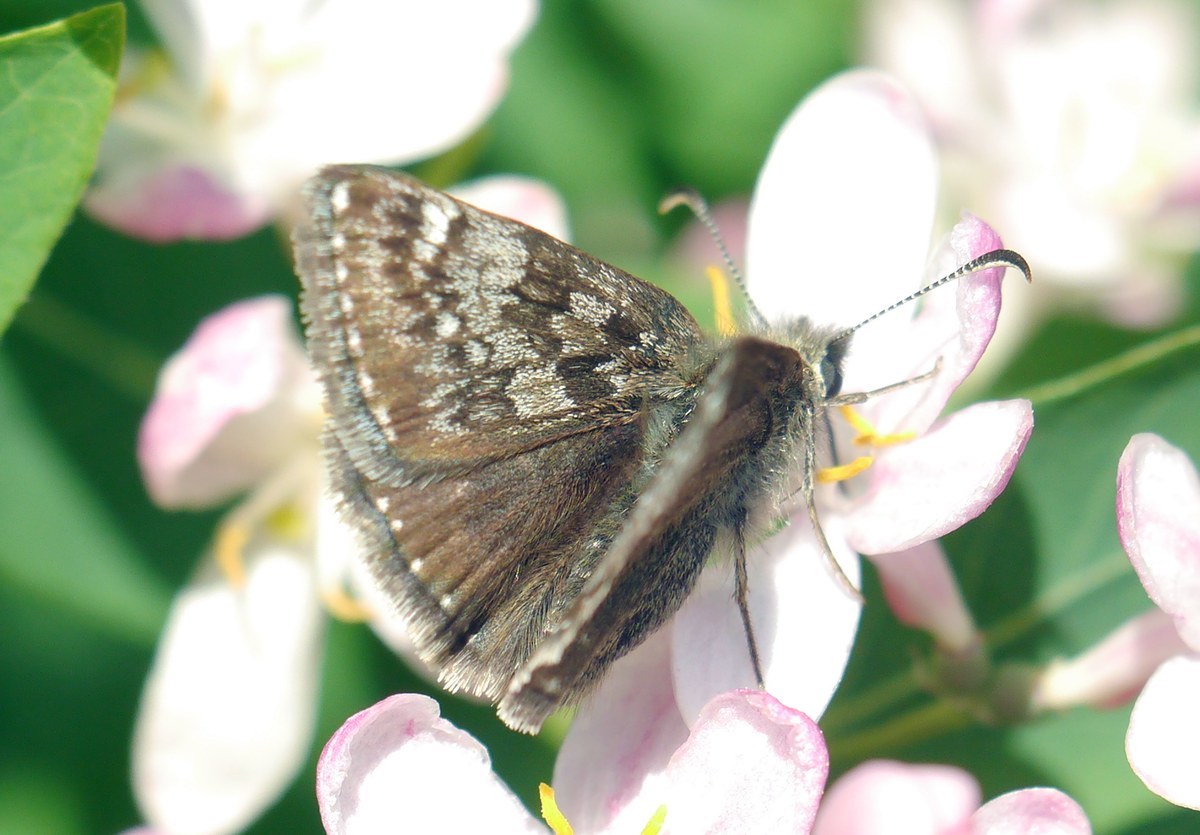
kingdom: Animalia
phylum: Arthropoda
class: Insecta
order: Lepidoptera
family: Hesperiidae
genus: Erynnis
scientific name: Erynnis tages
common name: Dingy skipper
